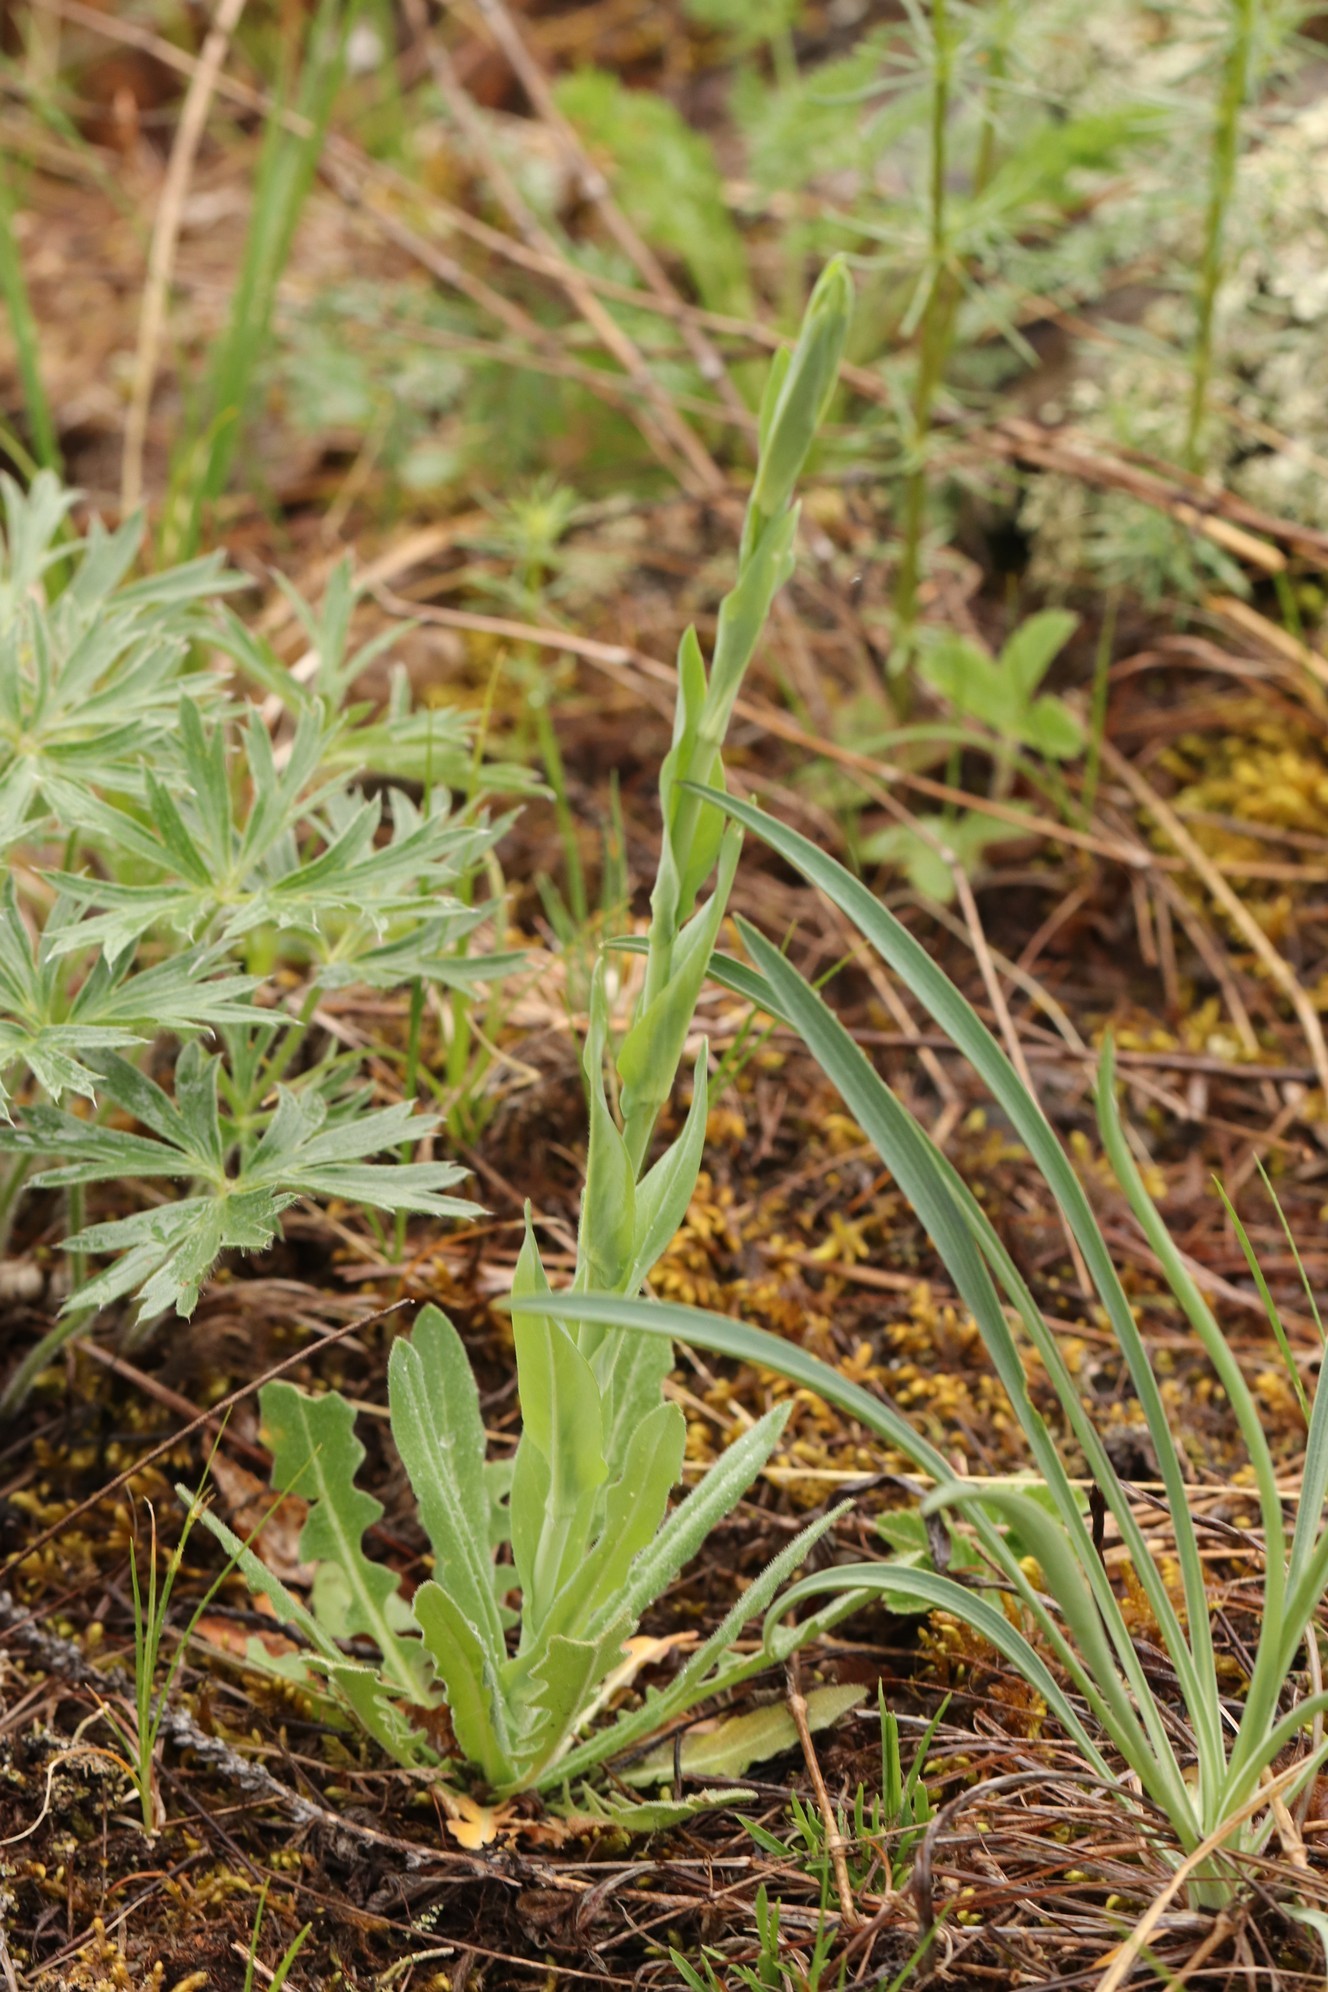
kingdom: Plantae
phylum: Tracheophyta
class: Magnoliopsida
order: Brassicales
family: Brassicaceae
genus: Turritis
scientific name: Turritis glabra
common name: Tower rockcress
